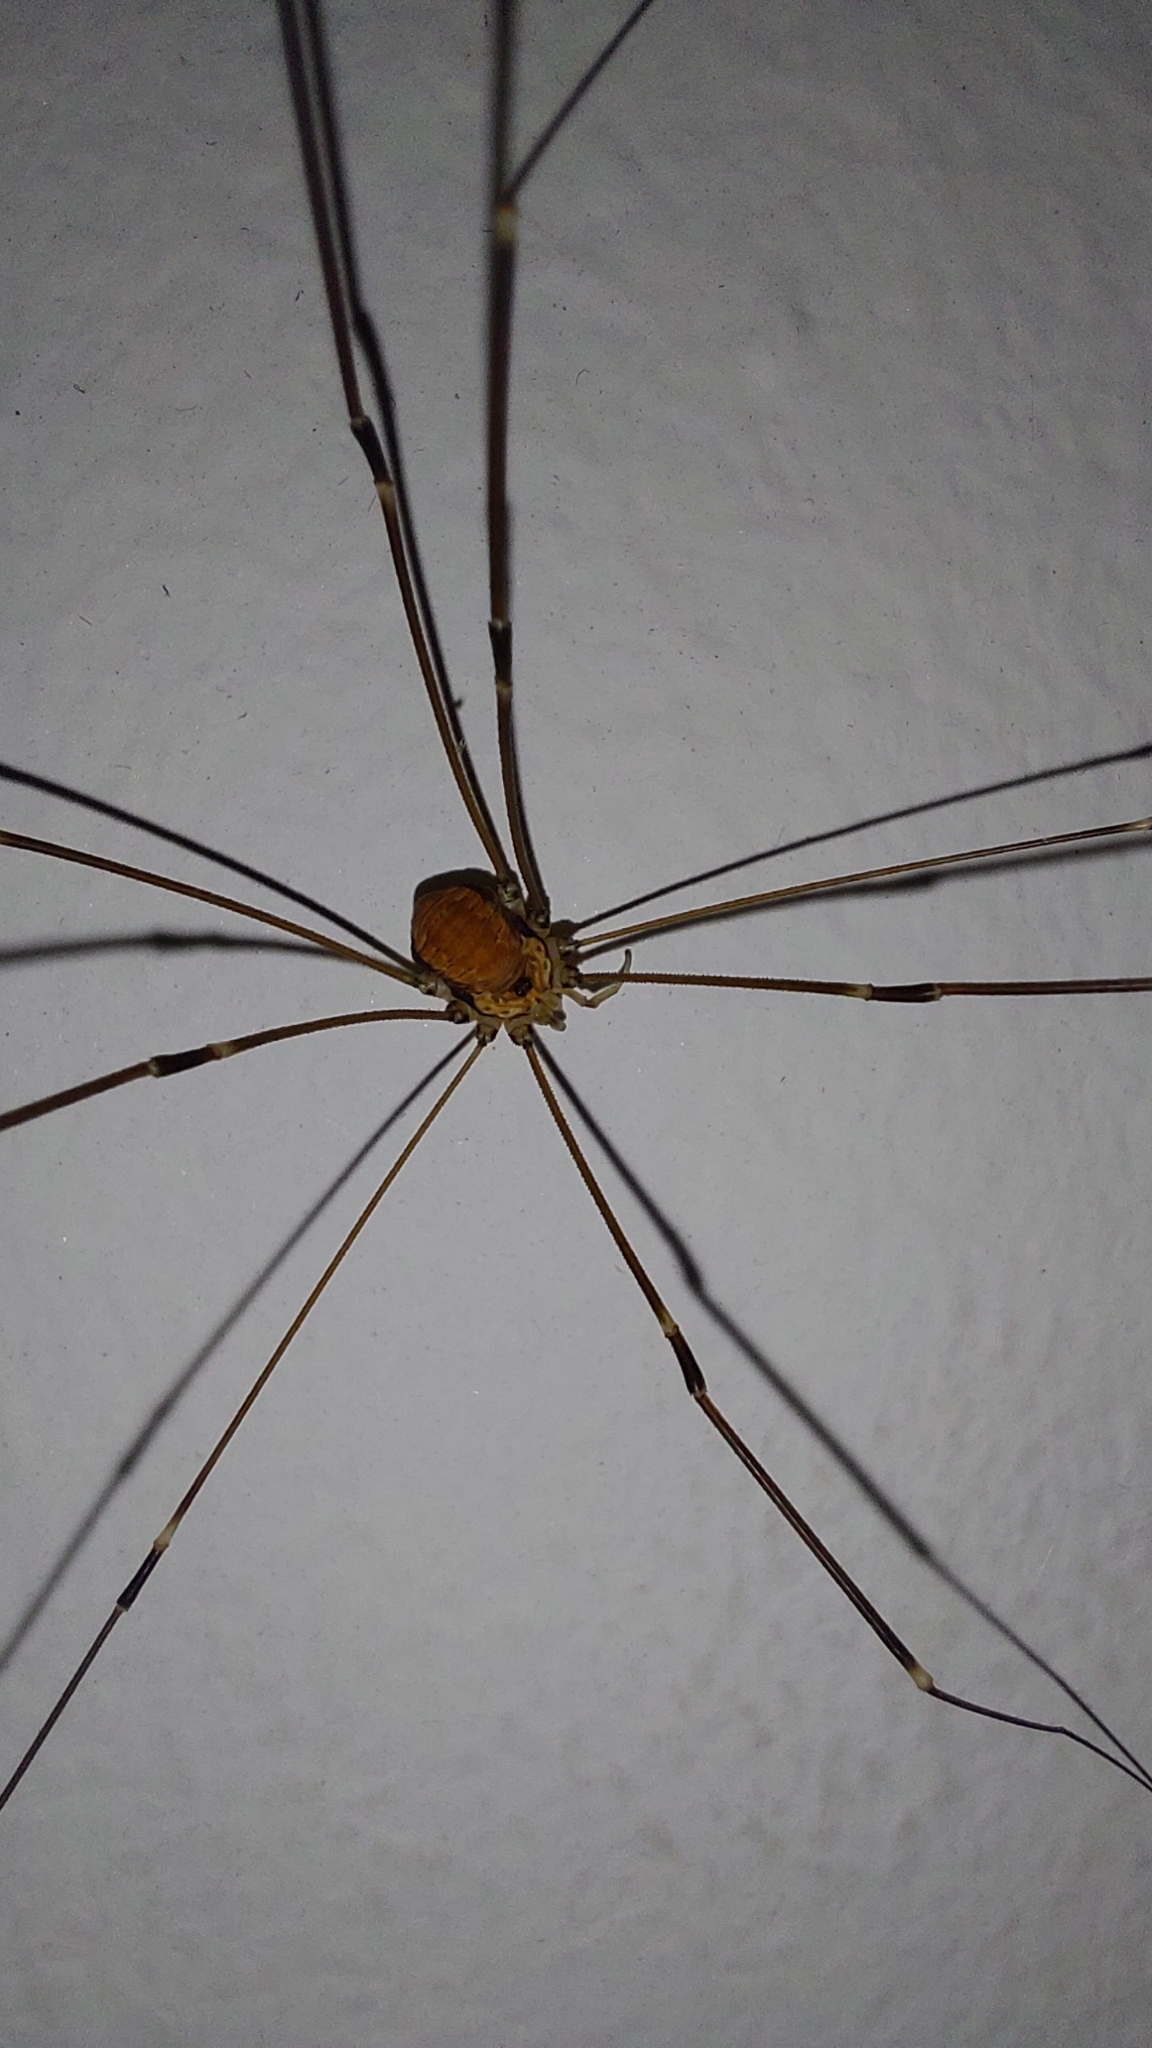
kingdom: Animalia
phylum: Arthropoda
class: Arachnida
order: Opiliones
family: Sclerosomatidae
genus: Leiobunum
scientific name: Leiobunum limbatum
